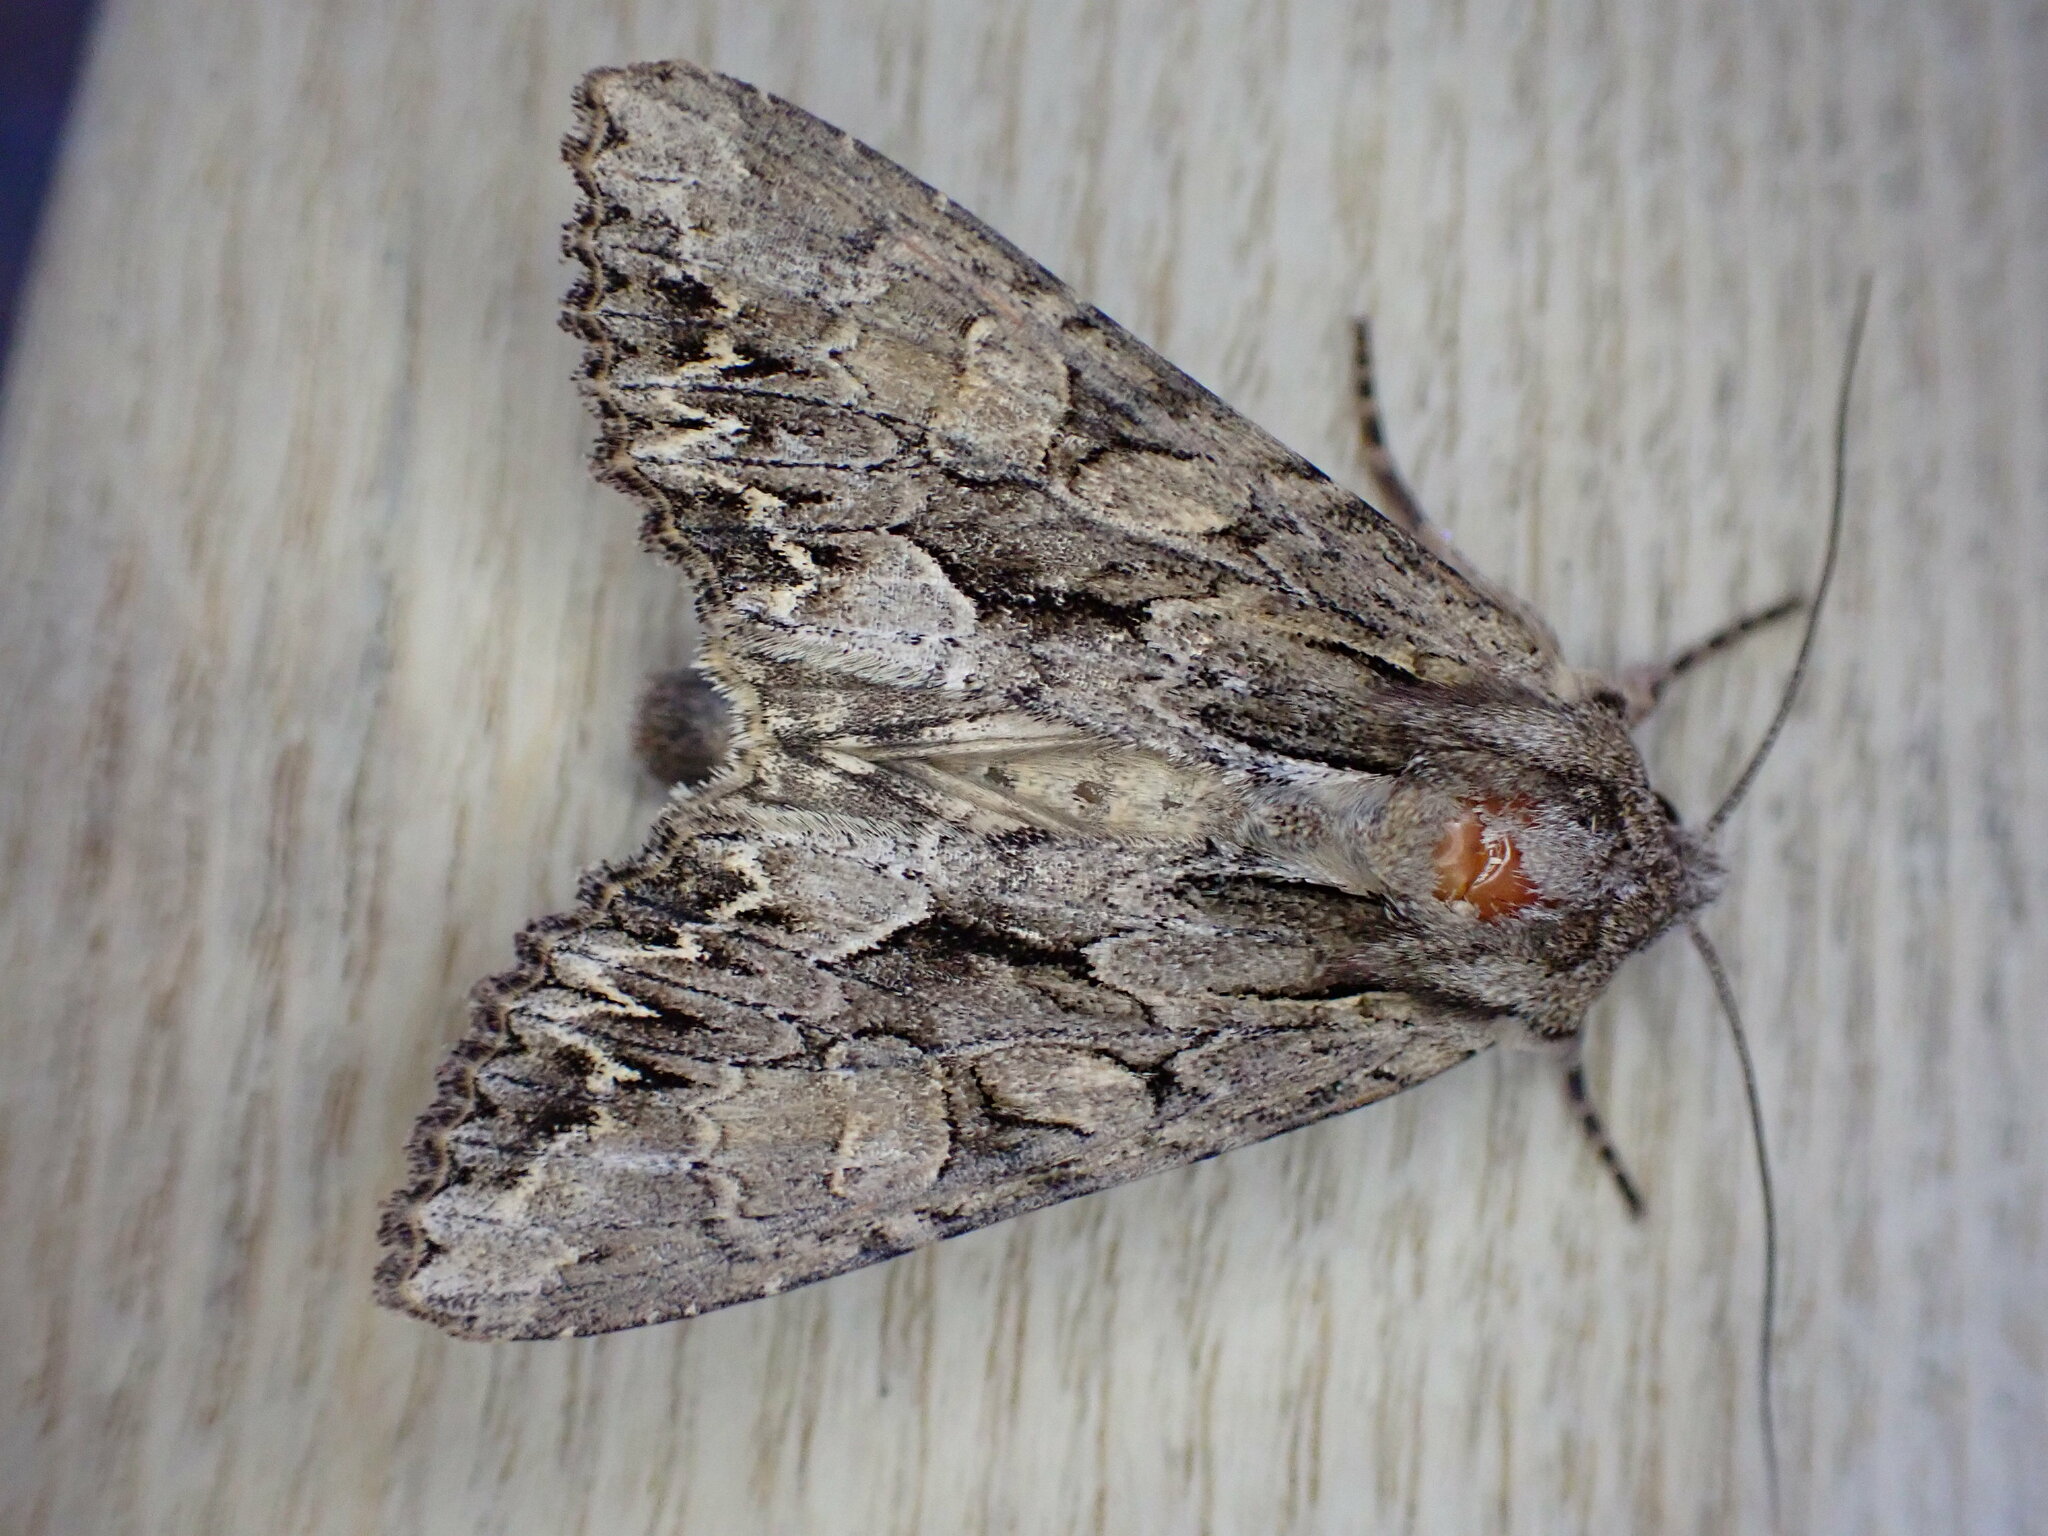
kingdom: Animalia
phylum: Arthropoda
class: Insecta
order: Lepidoptera
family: Noctuidae
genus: Apamea
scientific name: Apamea monoglypha
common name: Dark arches
